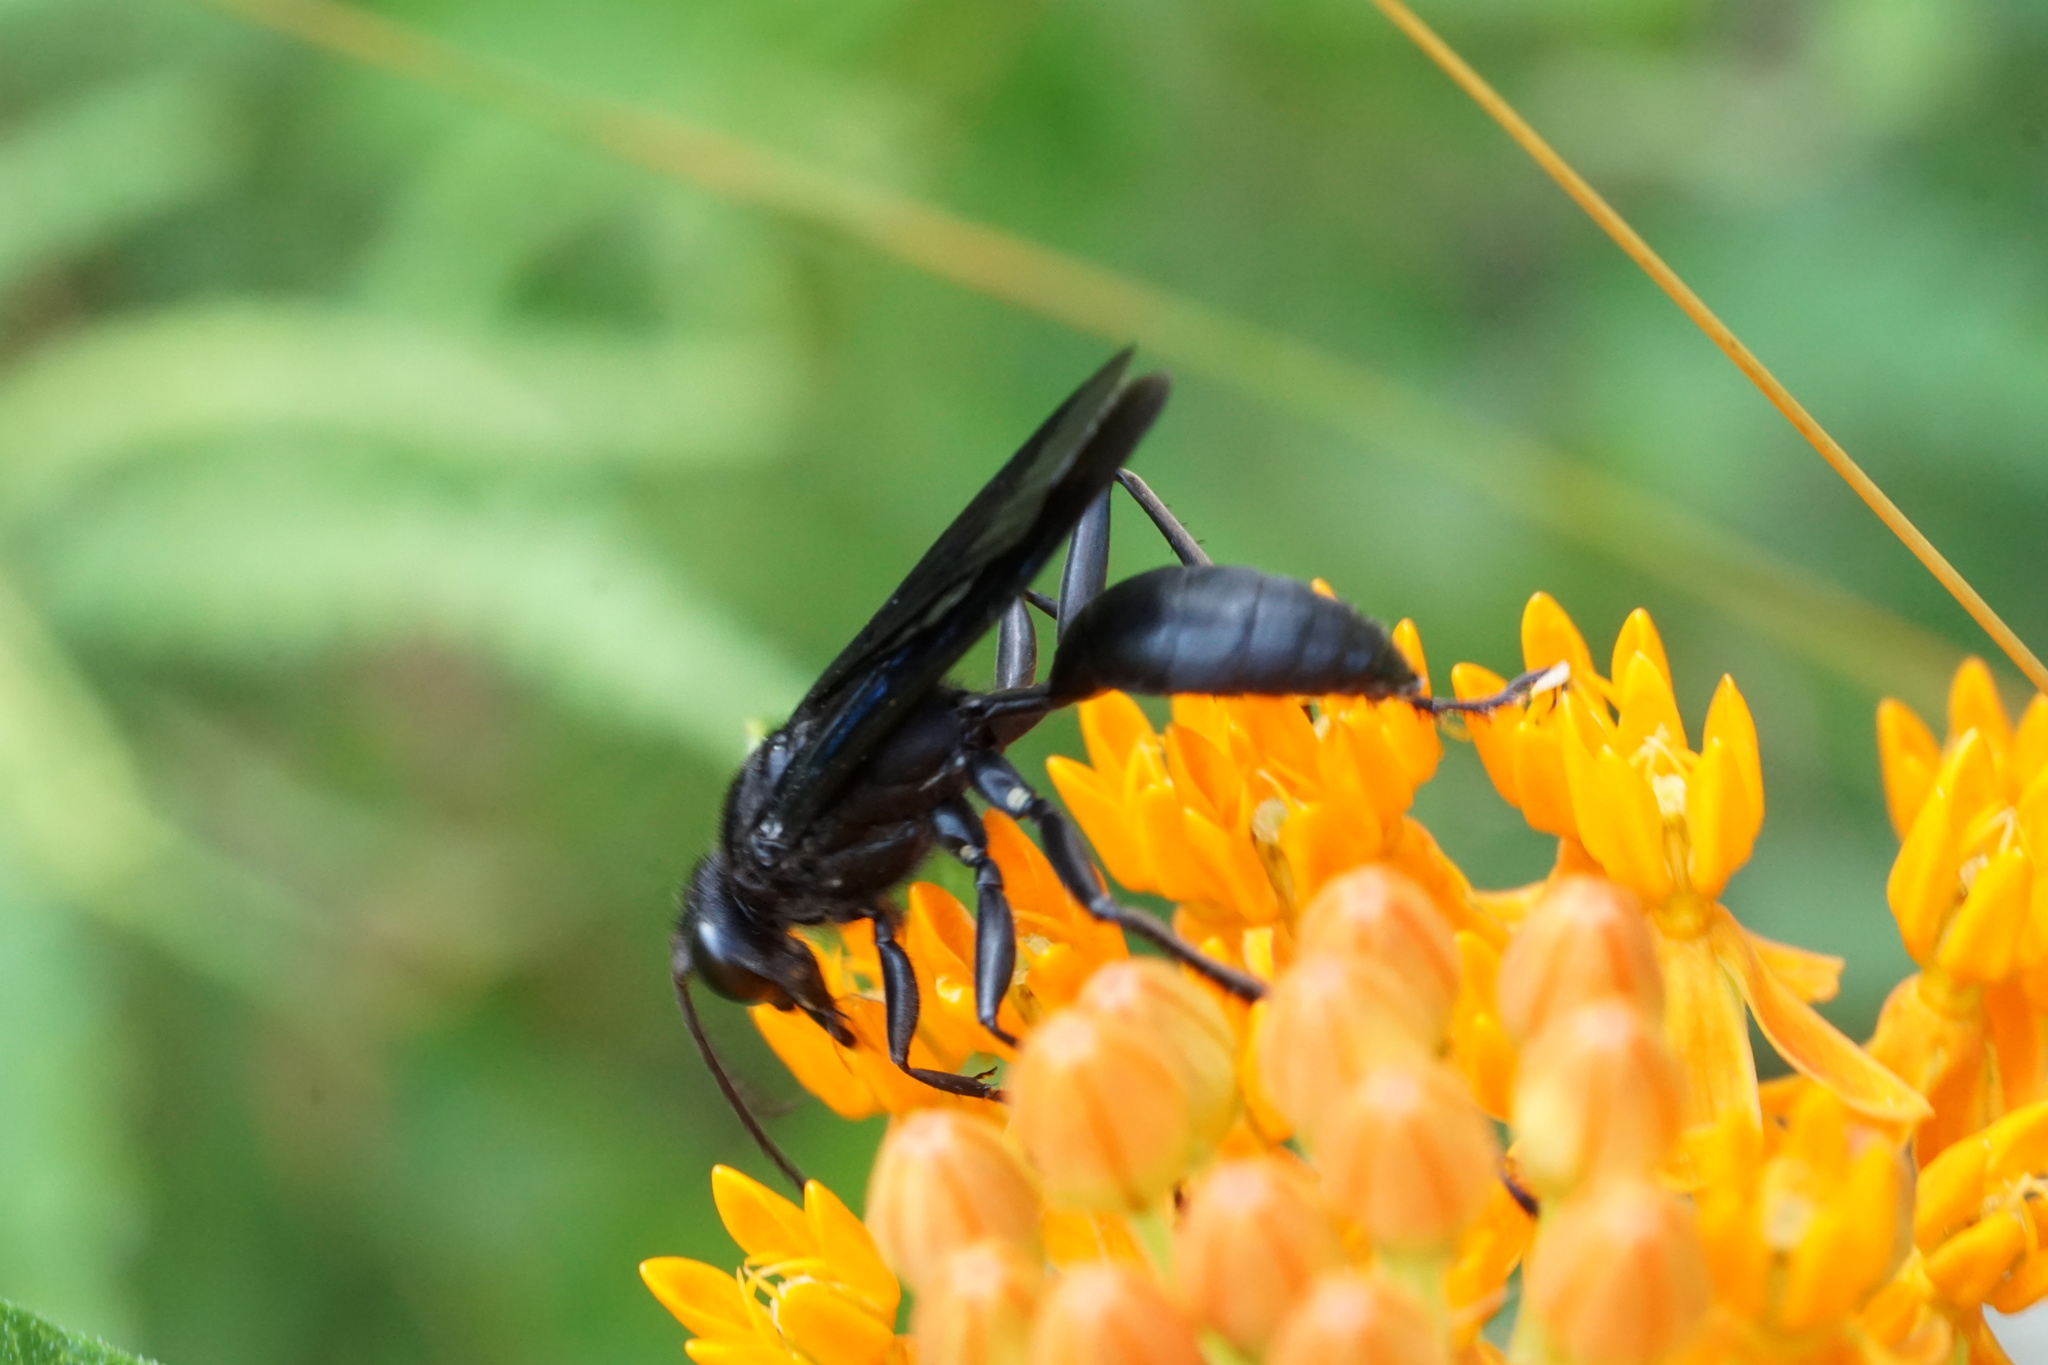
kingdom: Animalia
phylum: Arthropoda
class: Insecta
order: Hymenoptera
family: Sphecidae
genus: Sphex
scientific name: Sphex pensylvanicus
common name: Great black digger wasp
